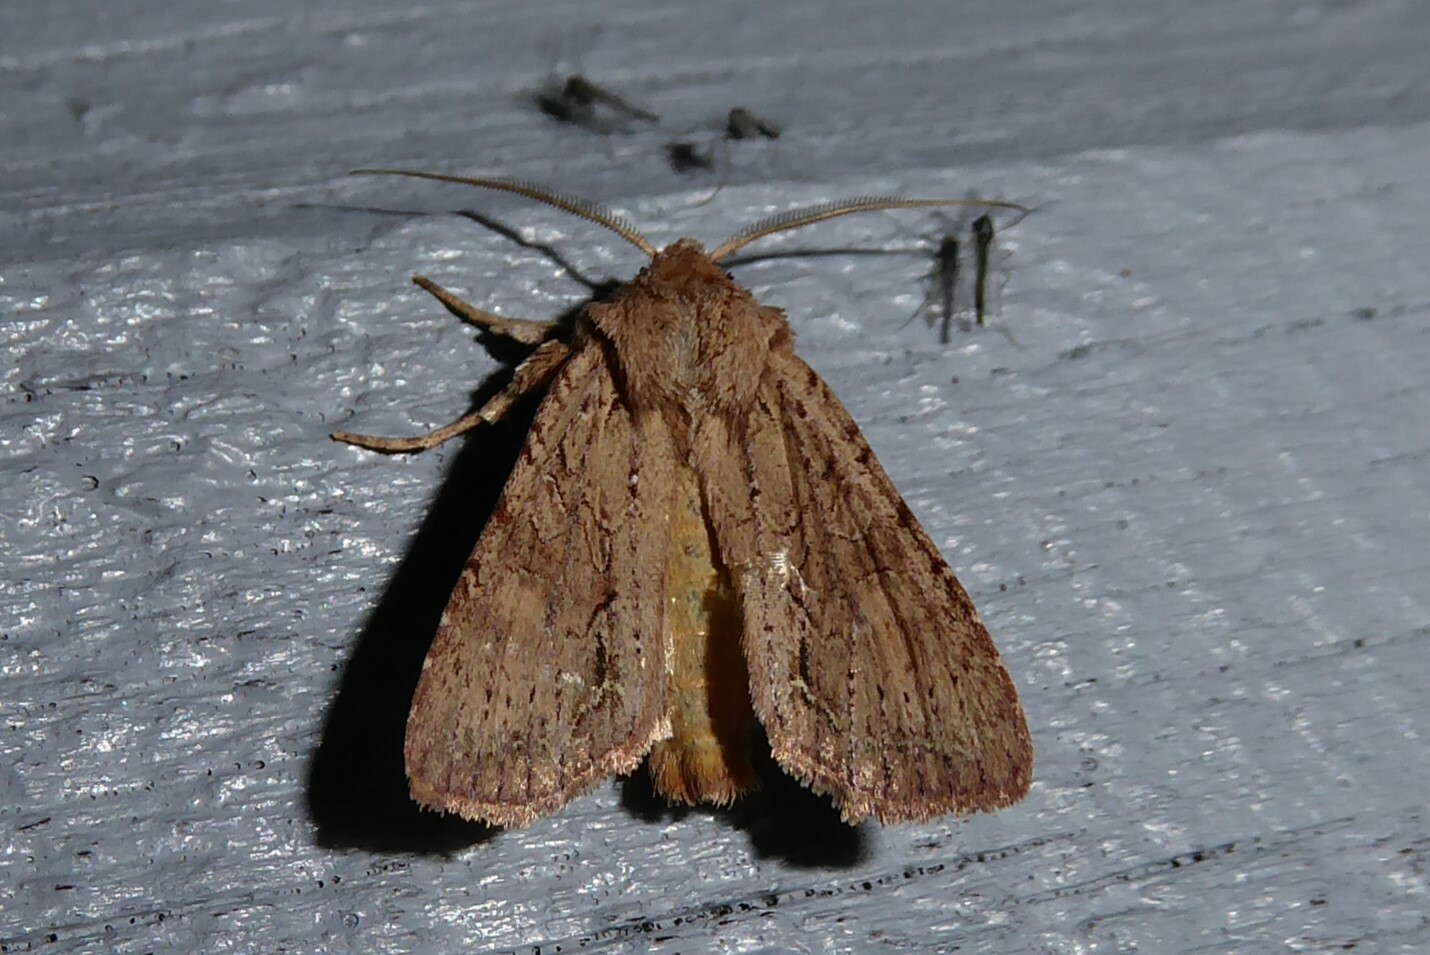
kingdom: Animalia
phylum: Arthropoda
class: Insecta
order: Lepidoptera
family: Noctuidae
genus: Ichneutica
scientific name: Ichneutica
